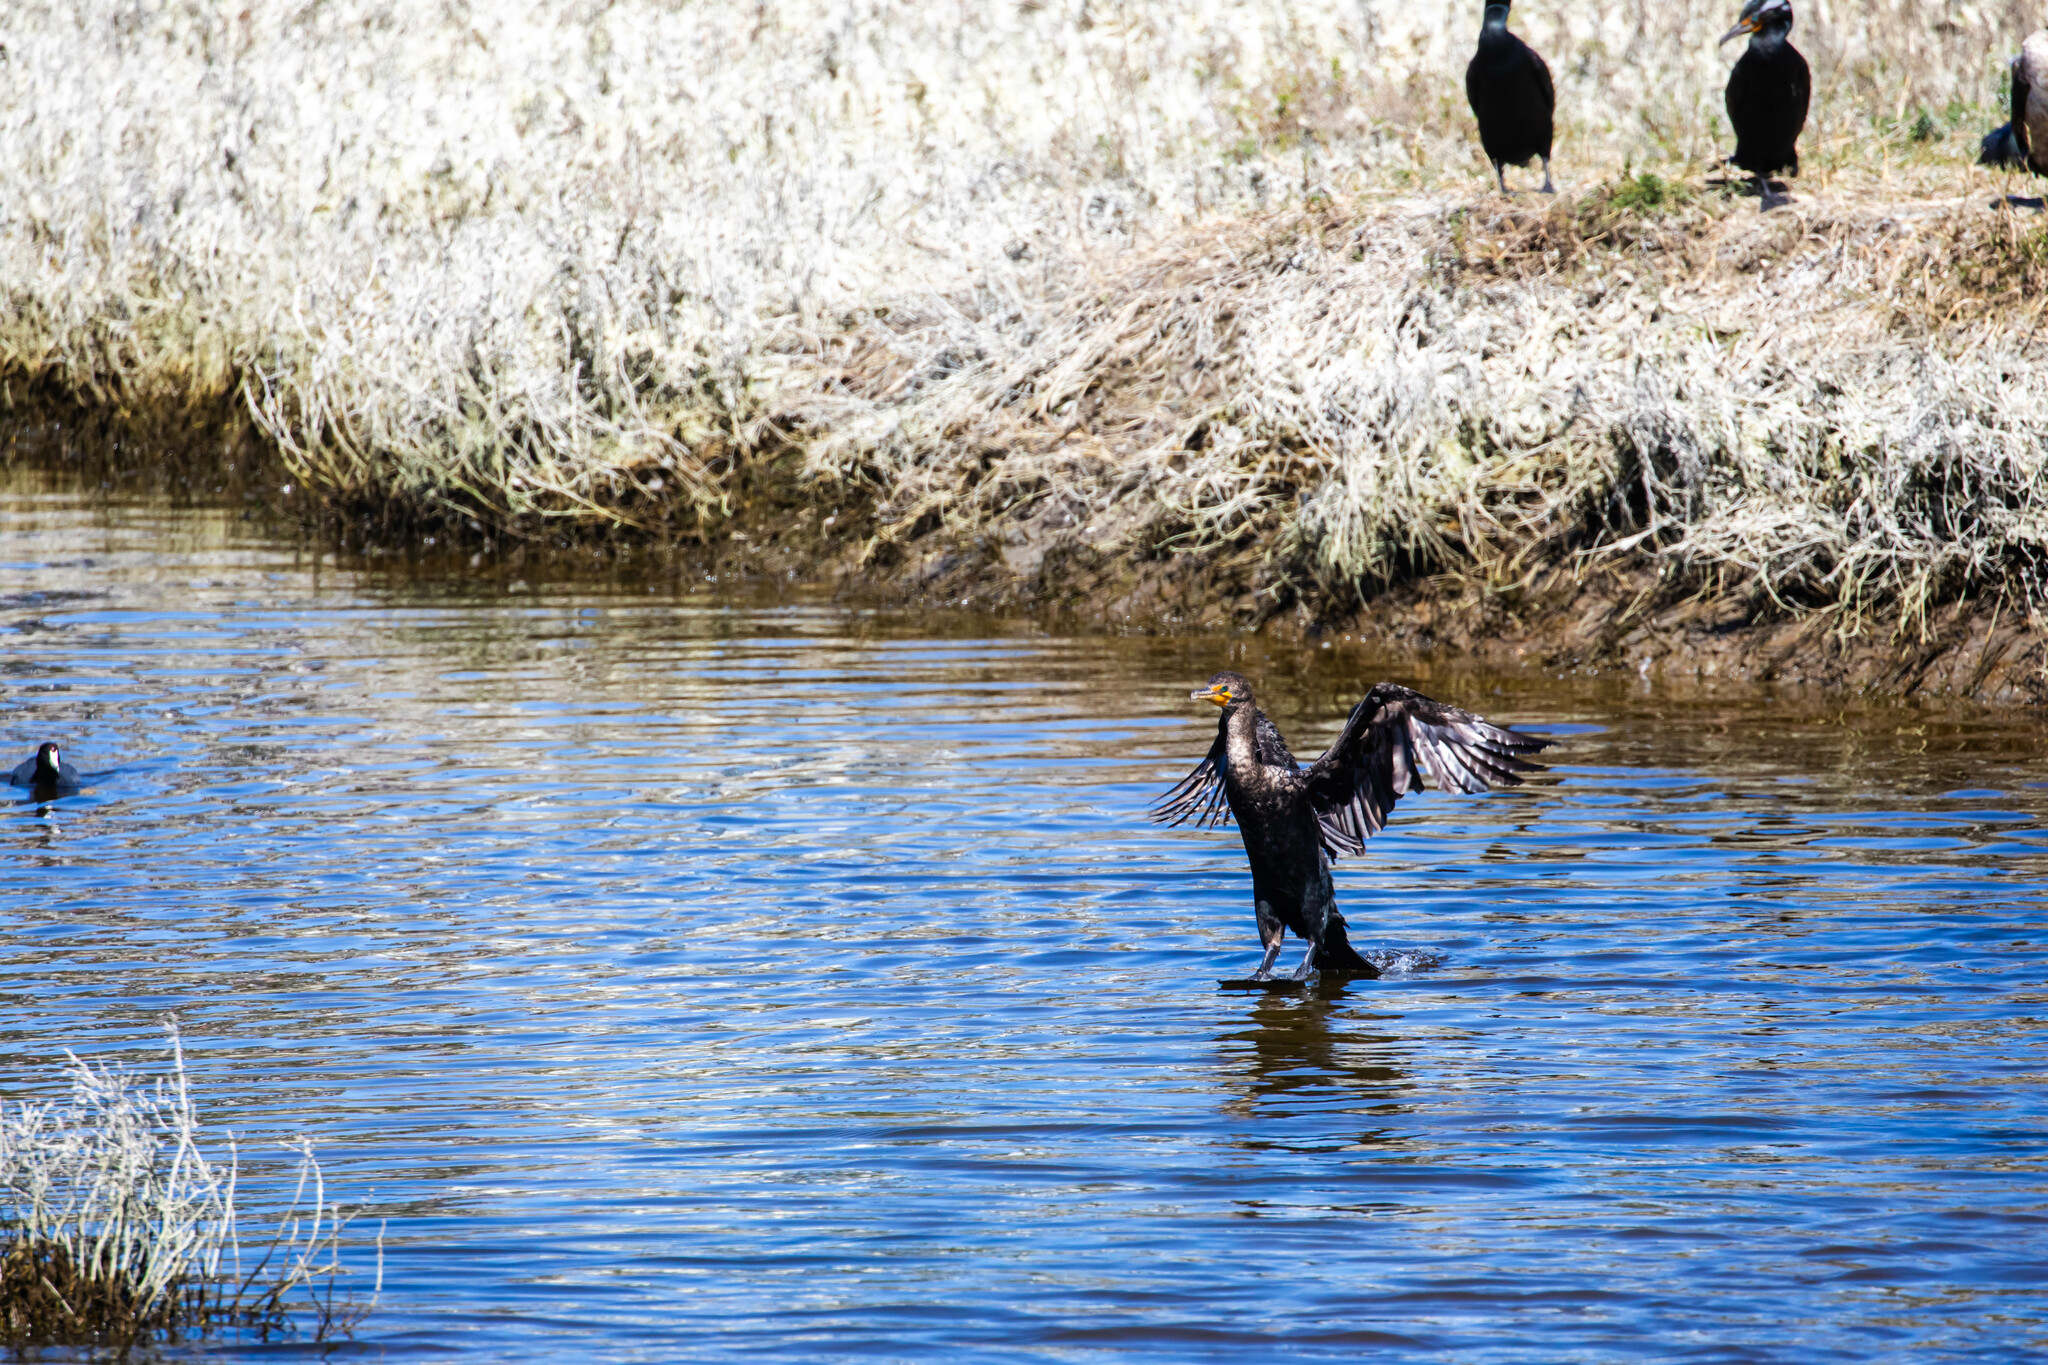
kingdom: Animalia
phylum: Chordata
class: Aves
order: Suliformes
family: Phalacrocoracidae
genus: Phalacrocorax
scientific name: Phalacrocorax auritus
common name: Double-crested cormorant
